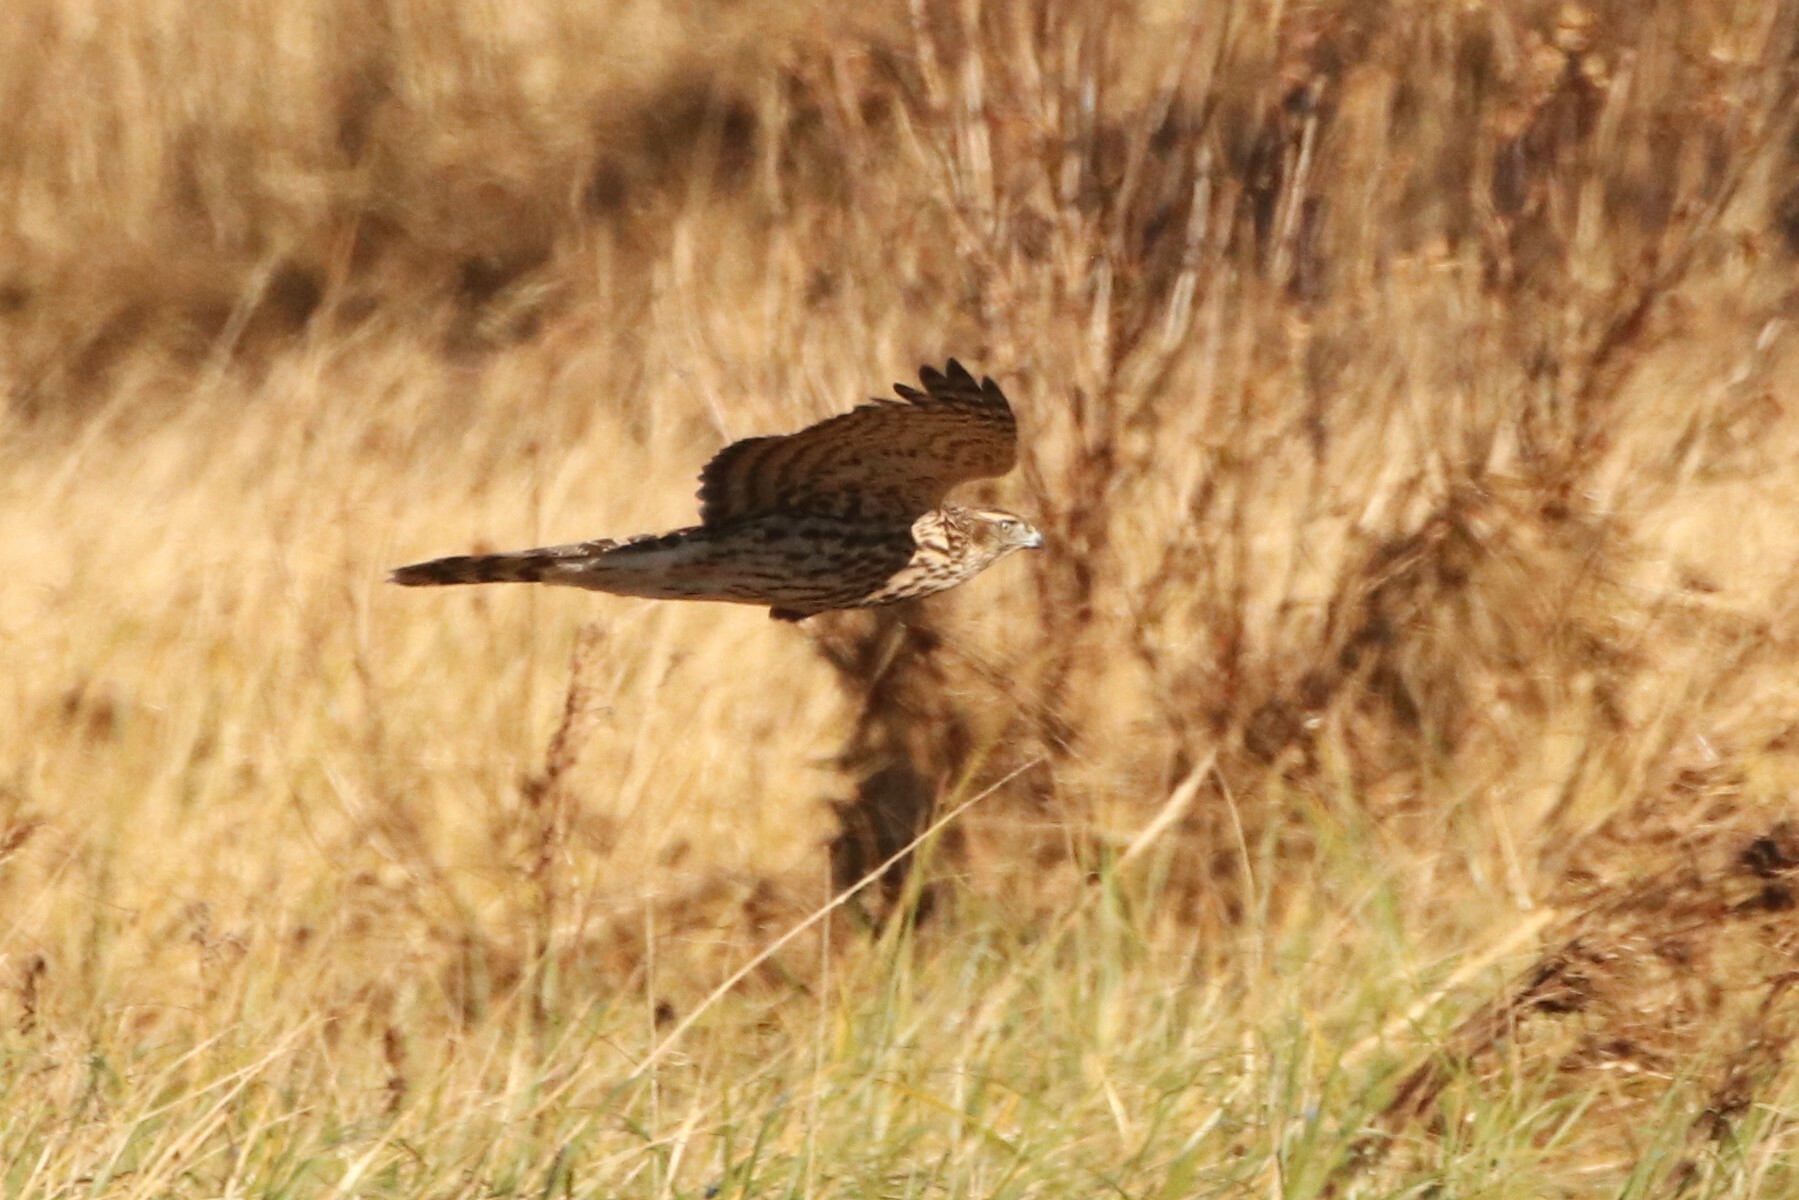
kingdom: Animalia
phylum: Chordata
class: Aves
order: Accipitriformes
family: Accipitridae
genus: Accipiter
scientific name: Accipiter gentilis
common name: Northern goshawk
